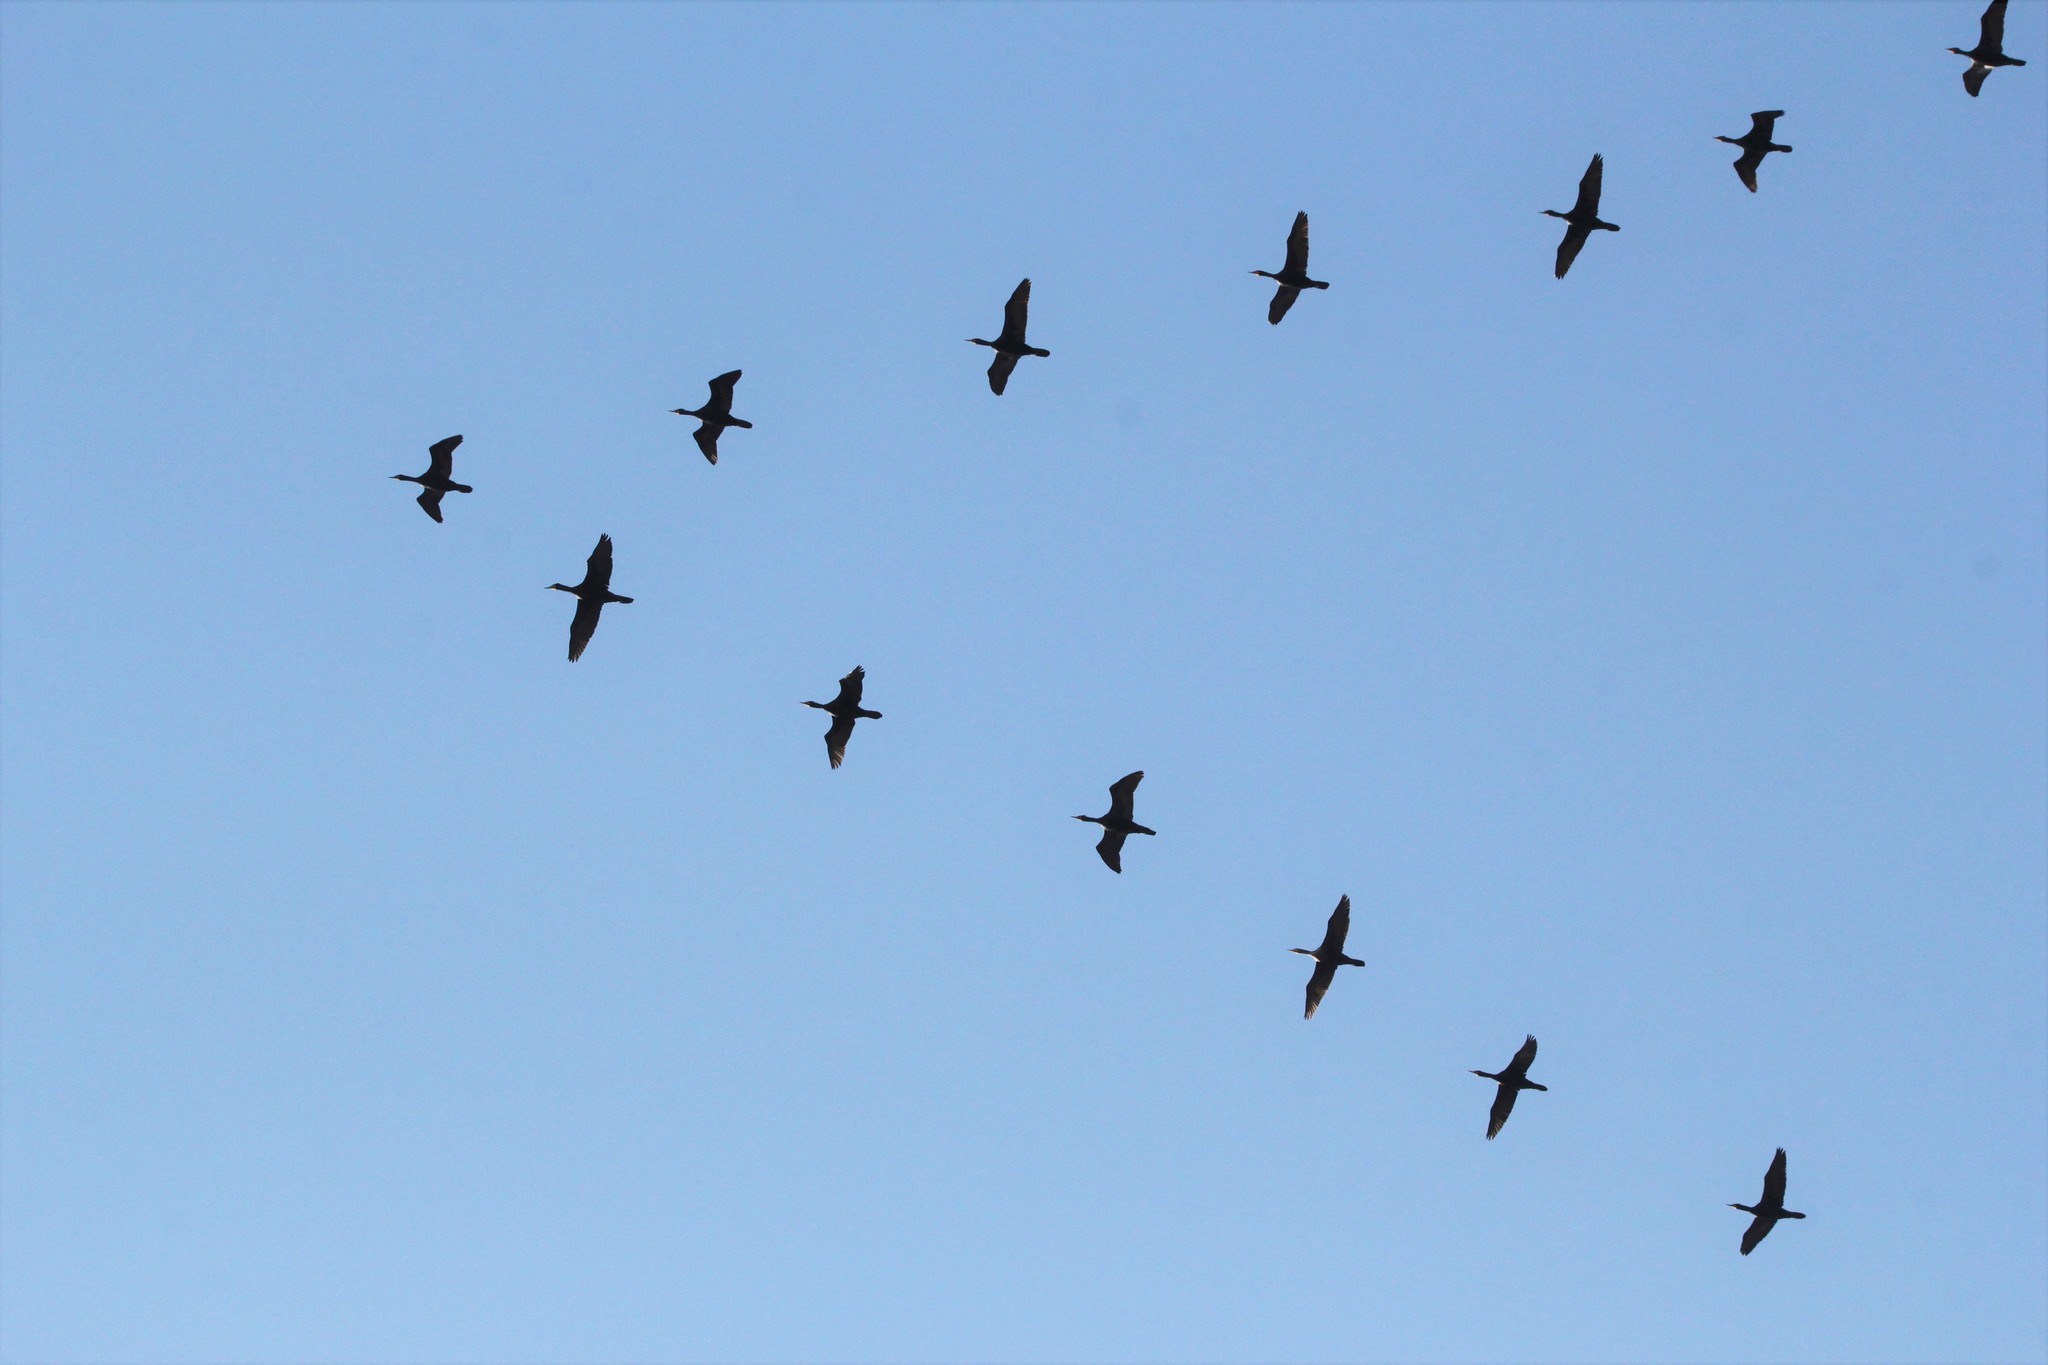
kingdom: Animalia
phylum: Chordata
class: Aves
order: Suliformes
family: Phalacrocoracidae
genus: Phalacrocorax
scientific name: Phalacrocorax auritus
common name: Double-crested cormorant
